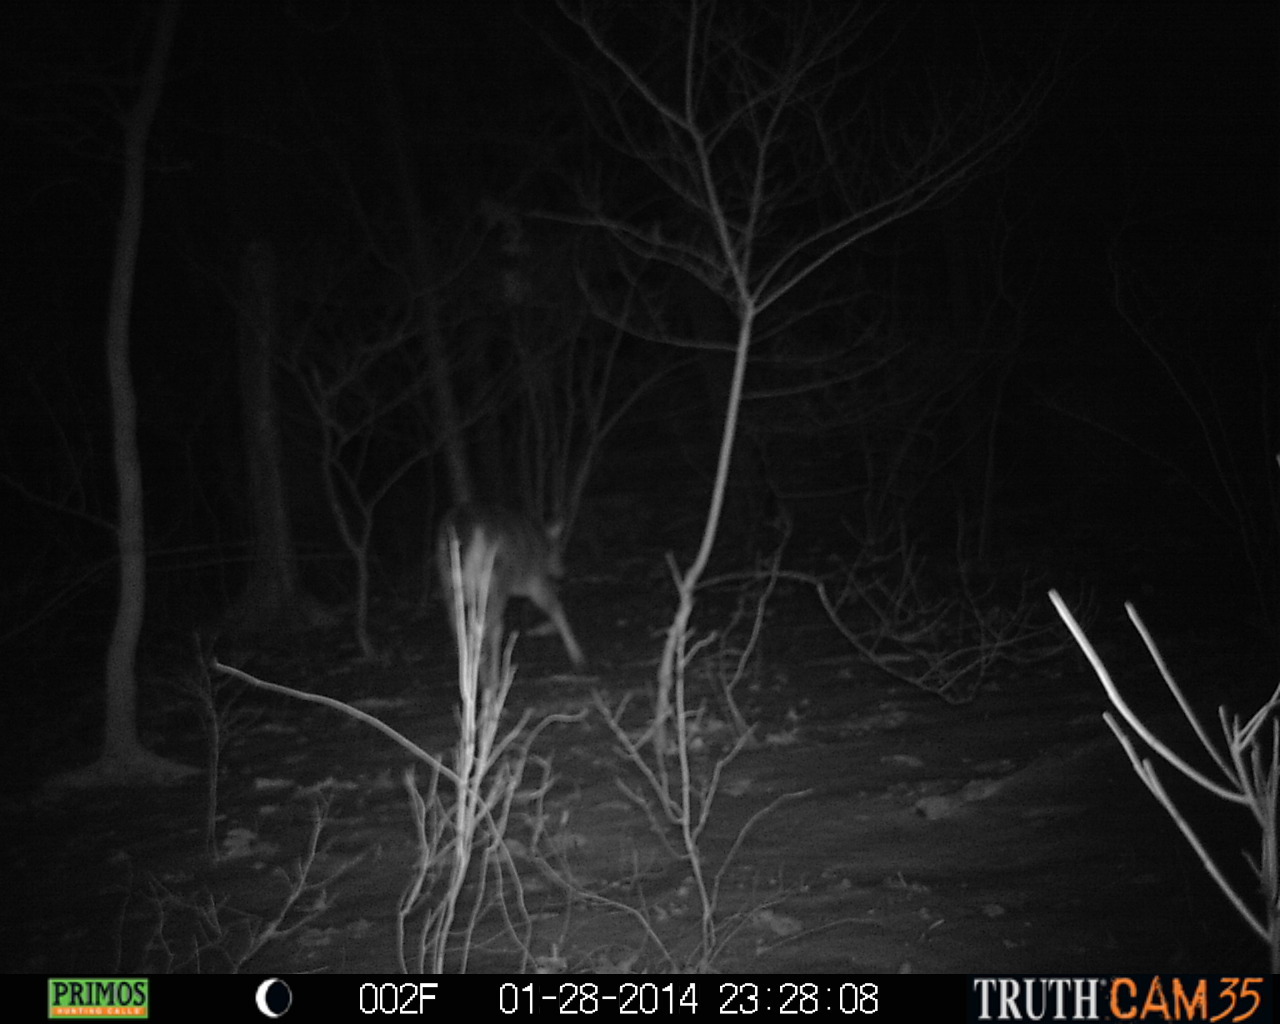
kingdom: Animalia
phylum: Chordata
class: Mammalia
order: Artiodactyla
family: Cervidae
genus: Odocoileus
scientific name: Odocoileus virginianus
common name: White-tailed deer
